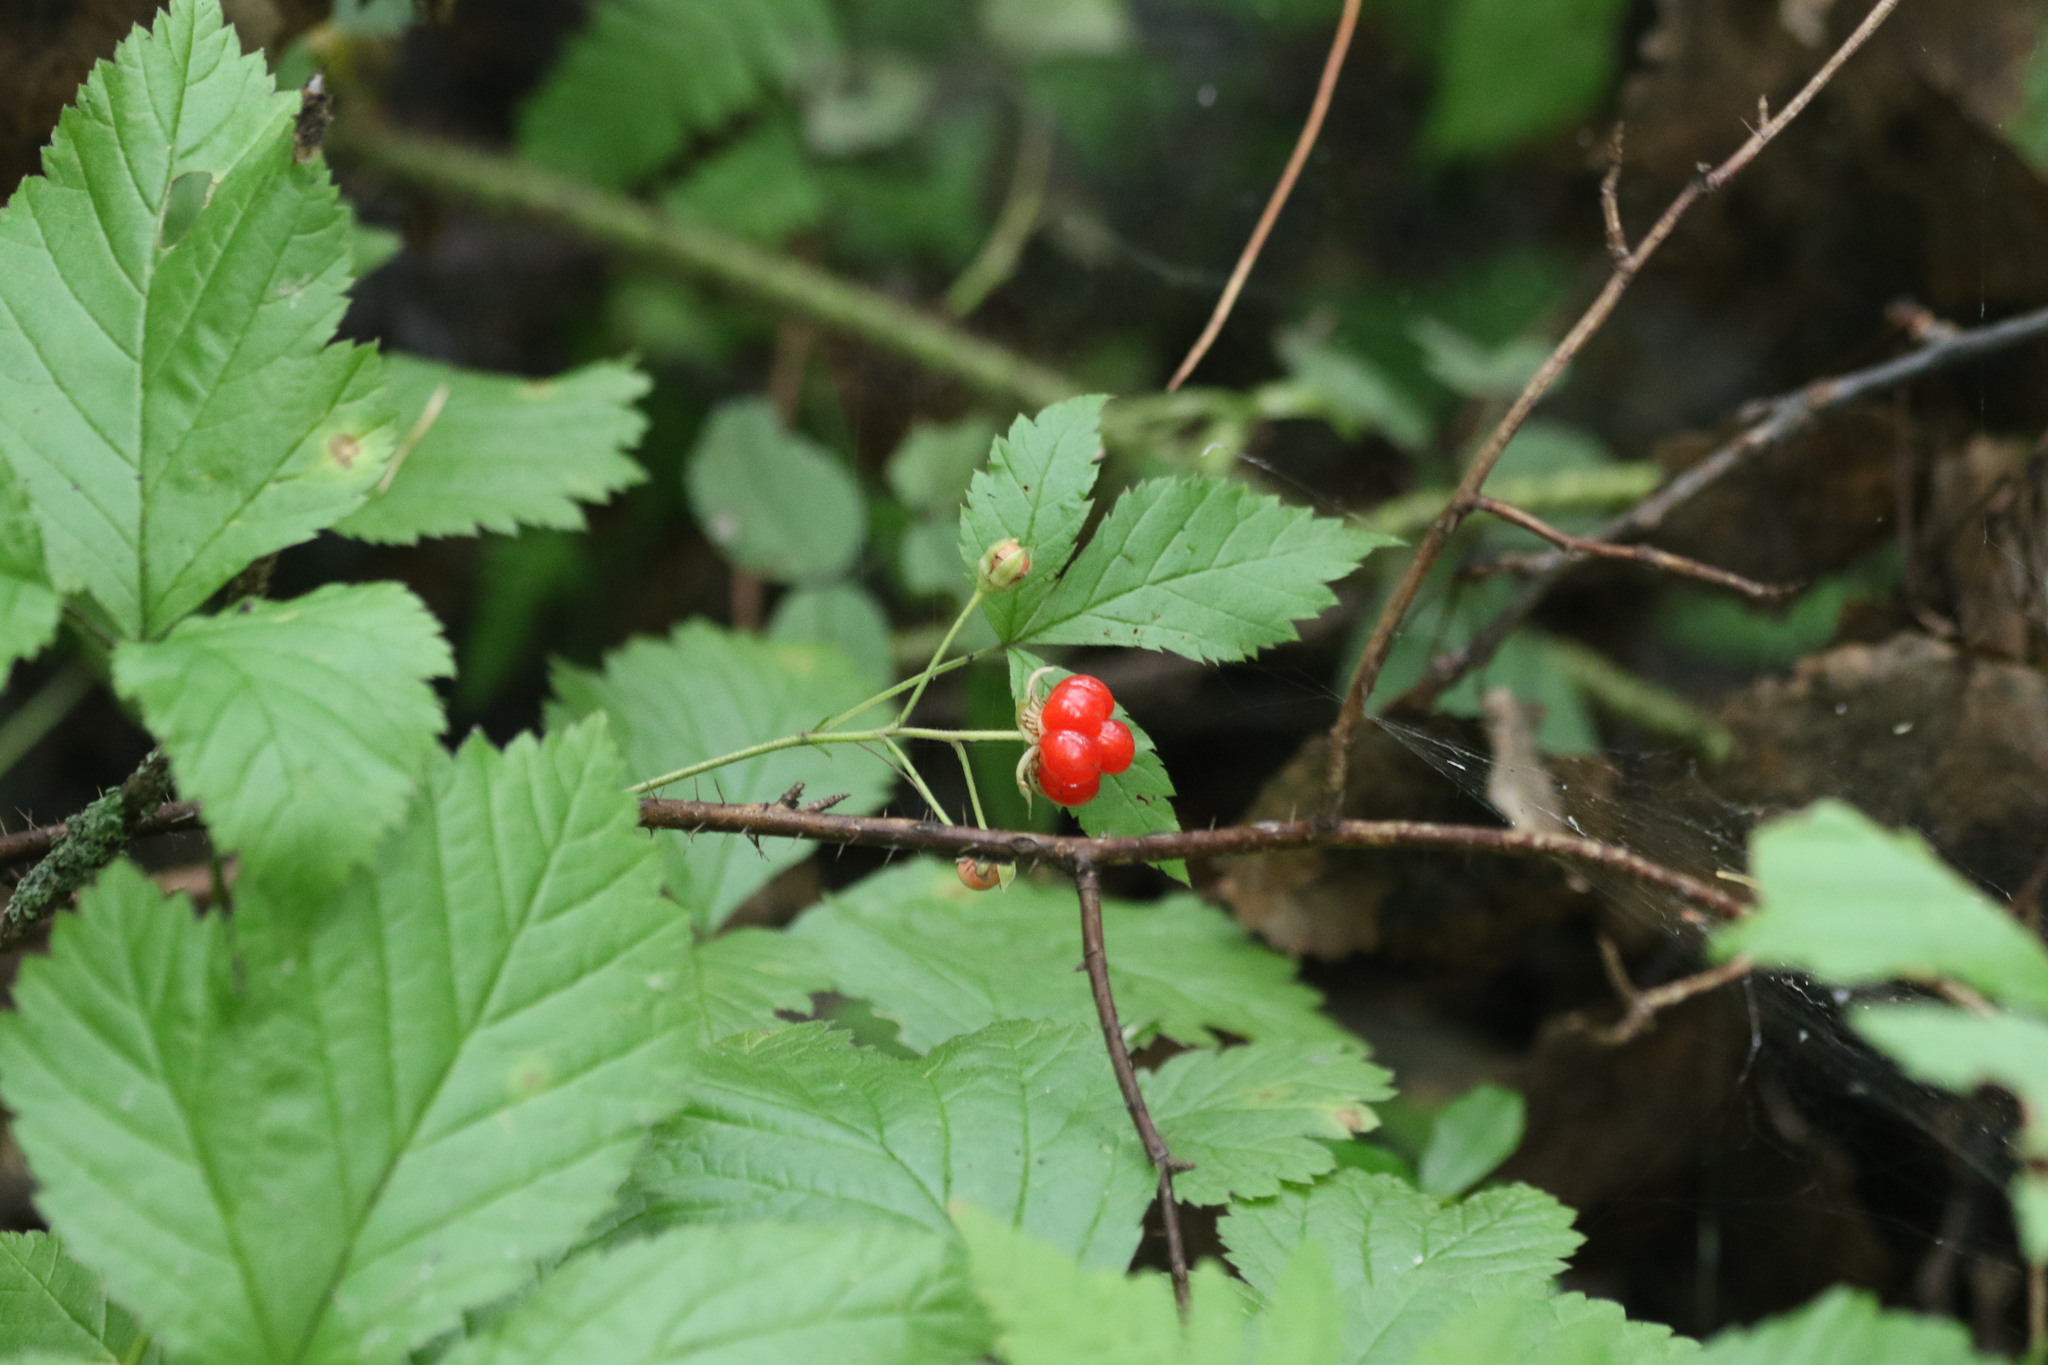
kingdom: Plantae
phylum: Tracheophyta
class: Magnoliopsida
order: Rosales
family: Rosaceae
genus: Rubus
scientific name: Rubus saxatilis
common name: Stone bramble
